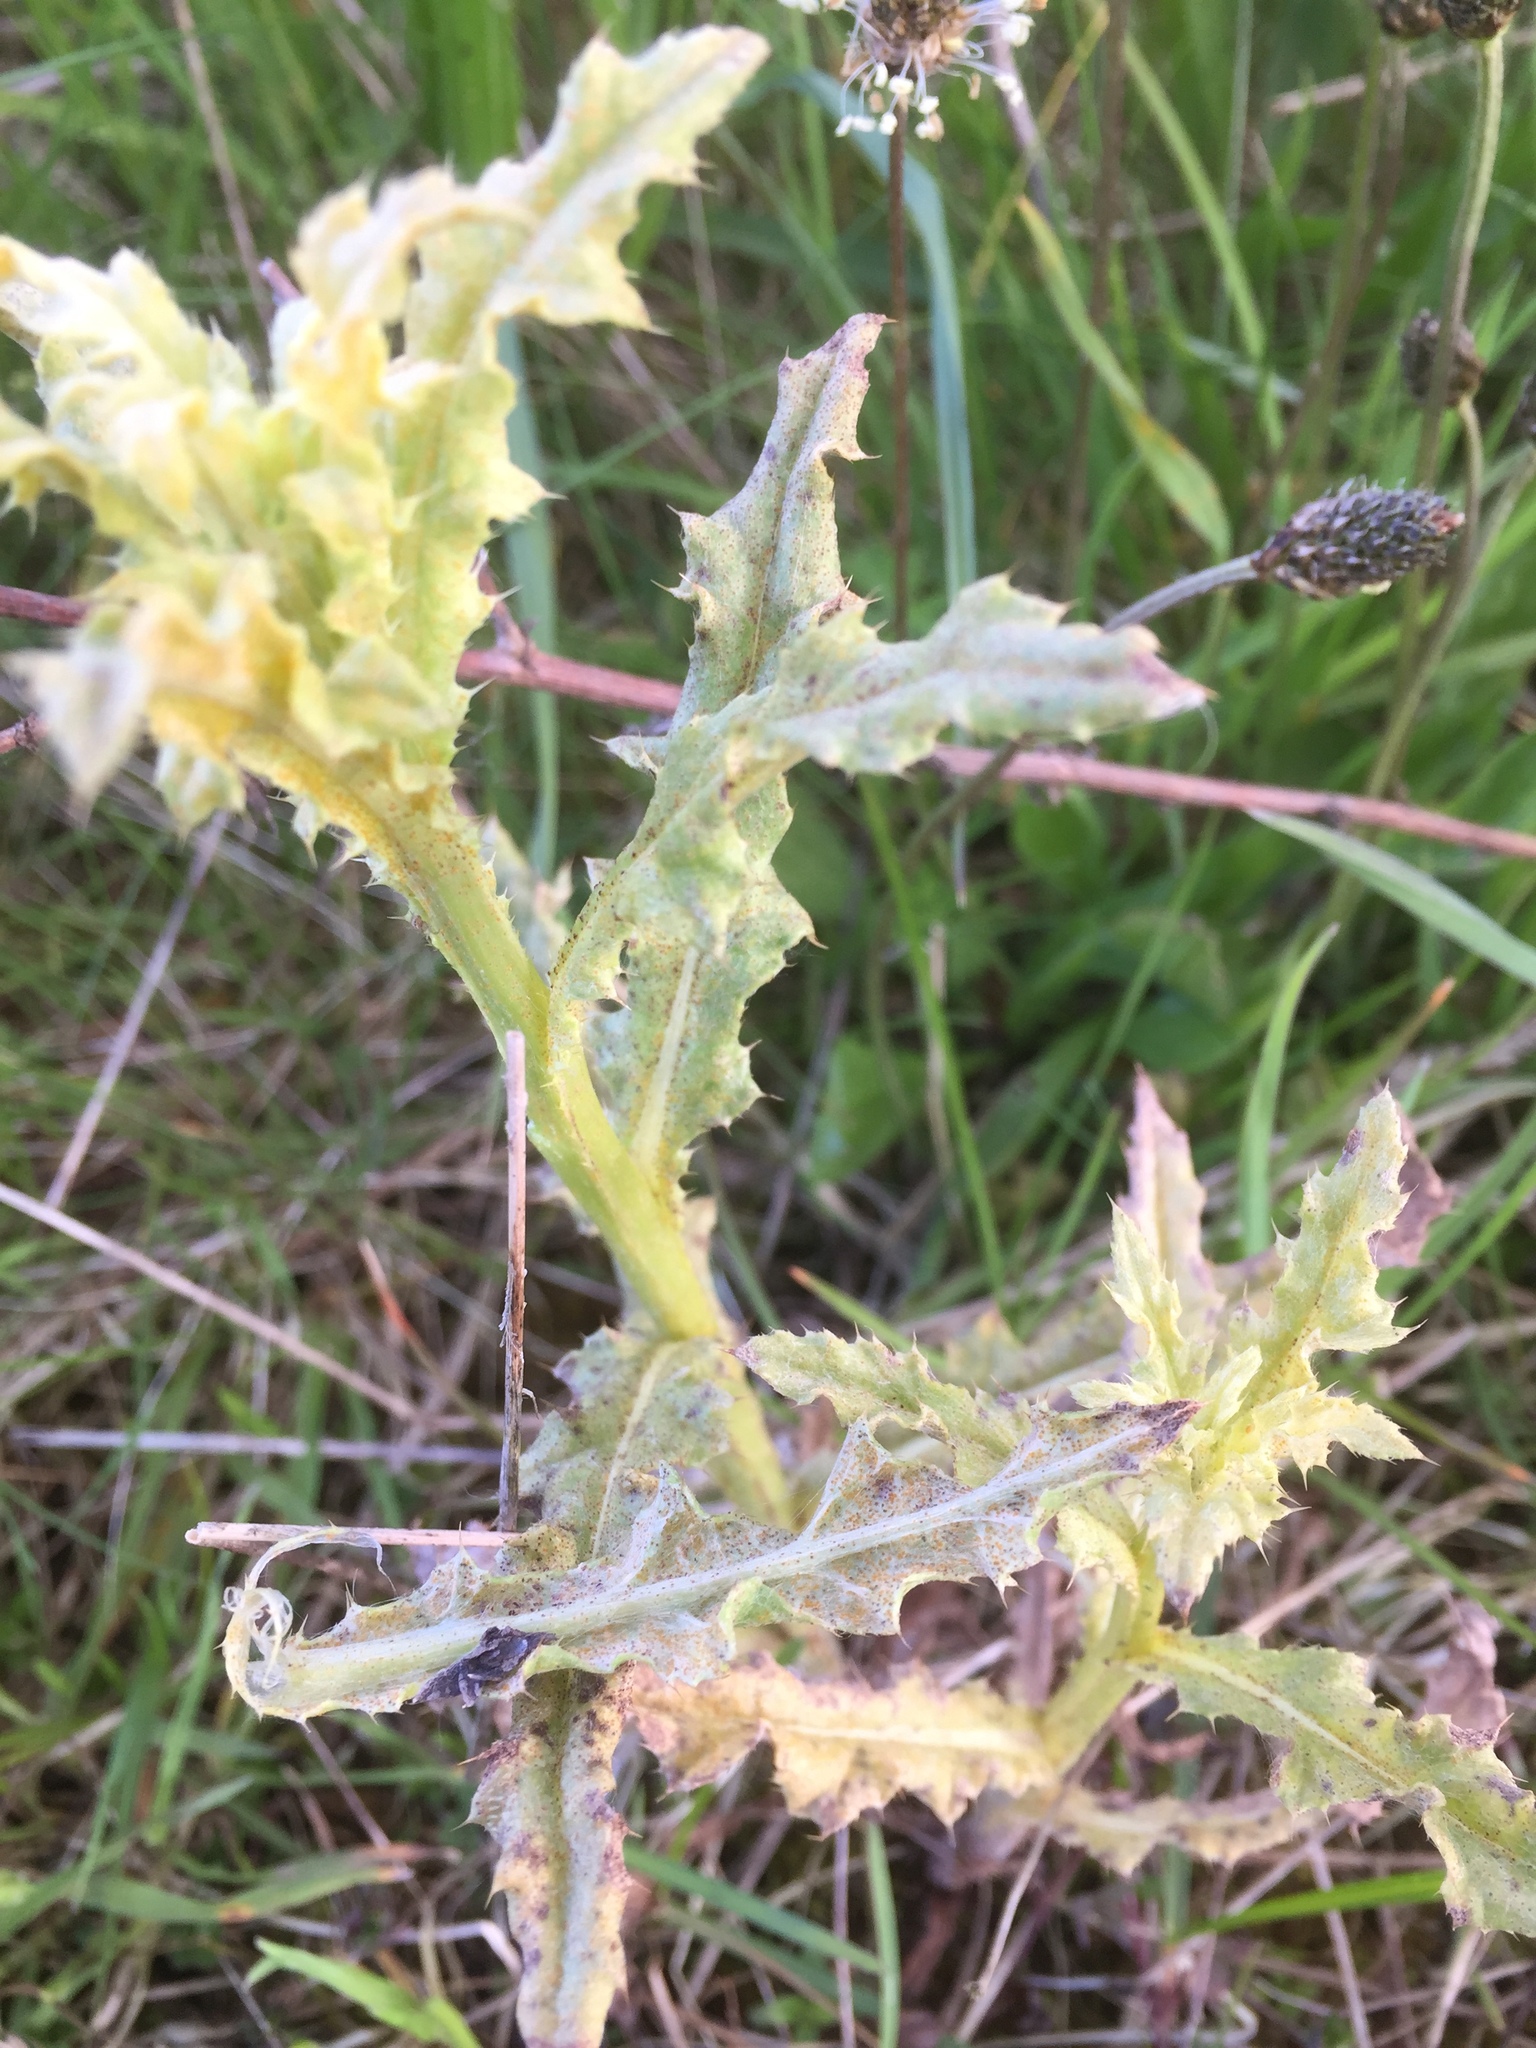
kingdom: Fungi
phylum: Basidiomycota
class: Pucciniomycetes
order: Pucciniales
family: Pucciniaceae
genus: Puccinia
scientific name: Puccinia suaveolens
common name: Thistle rust
